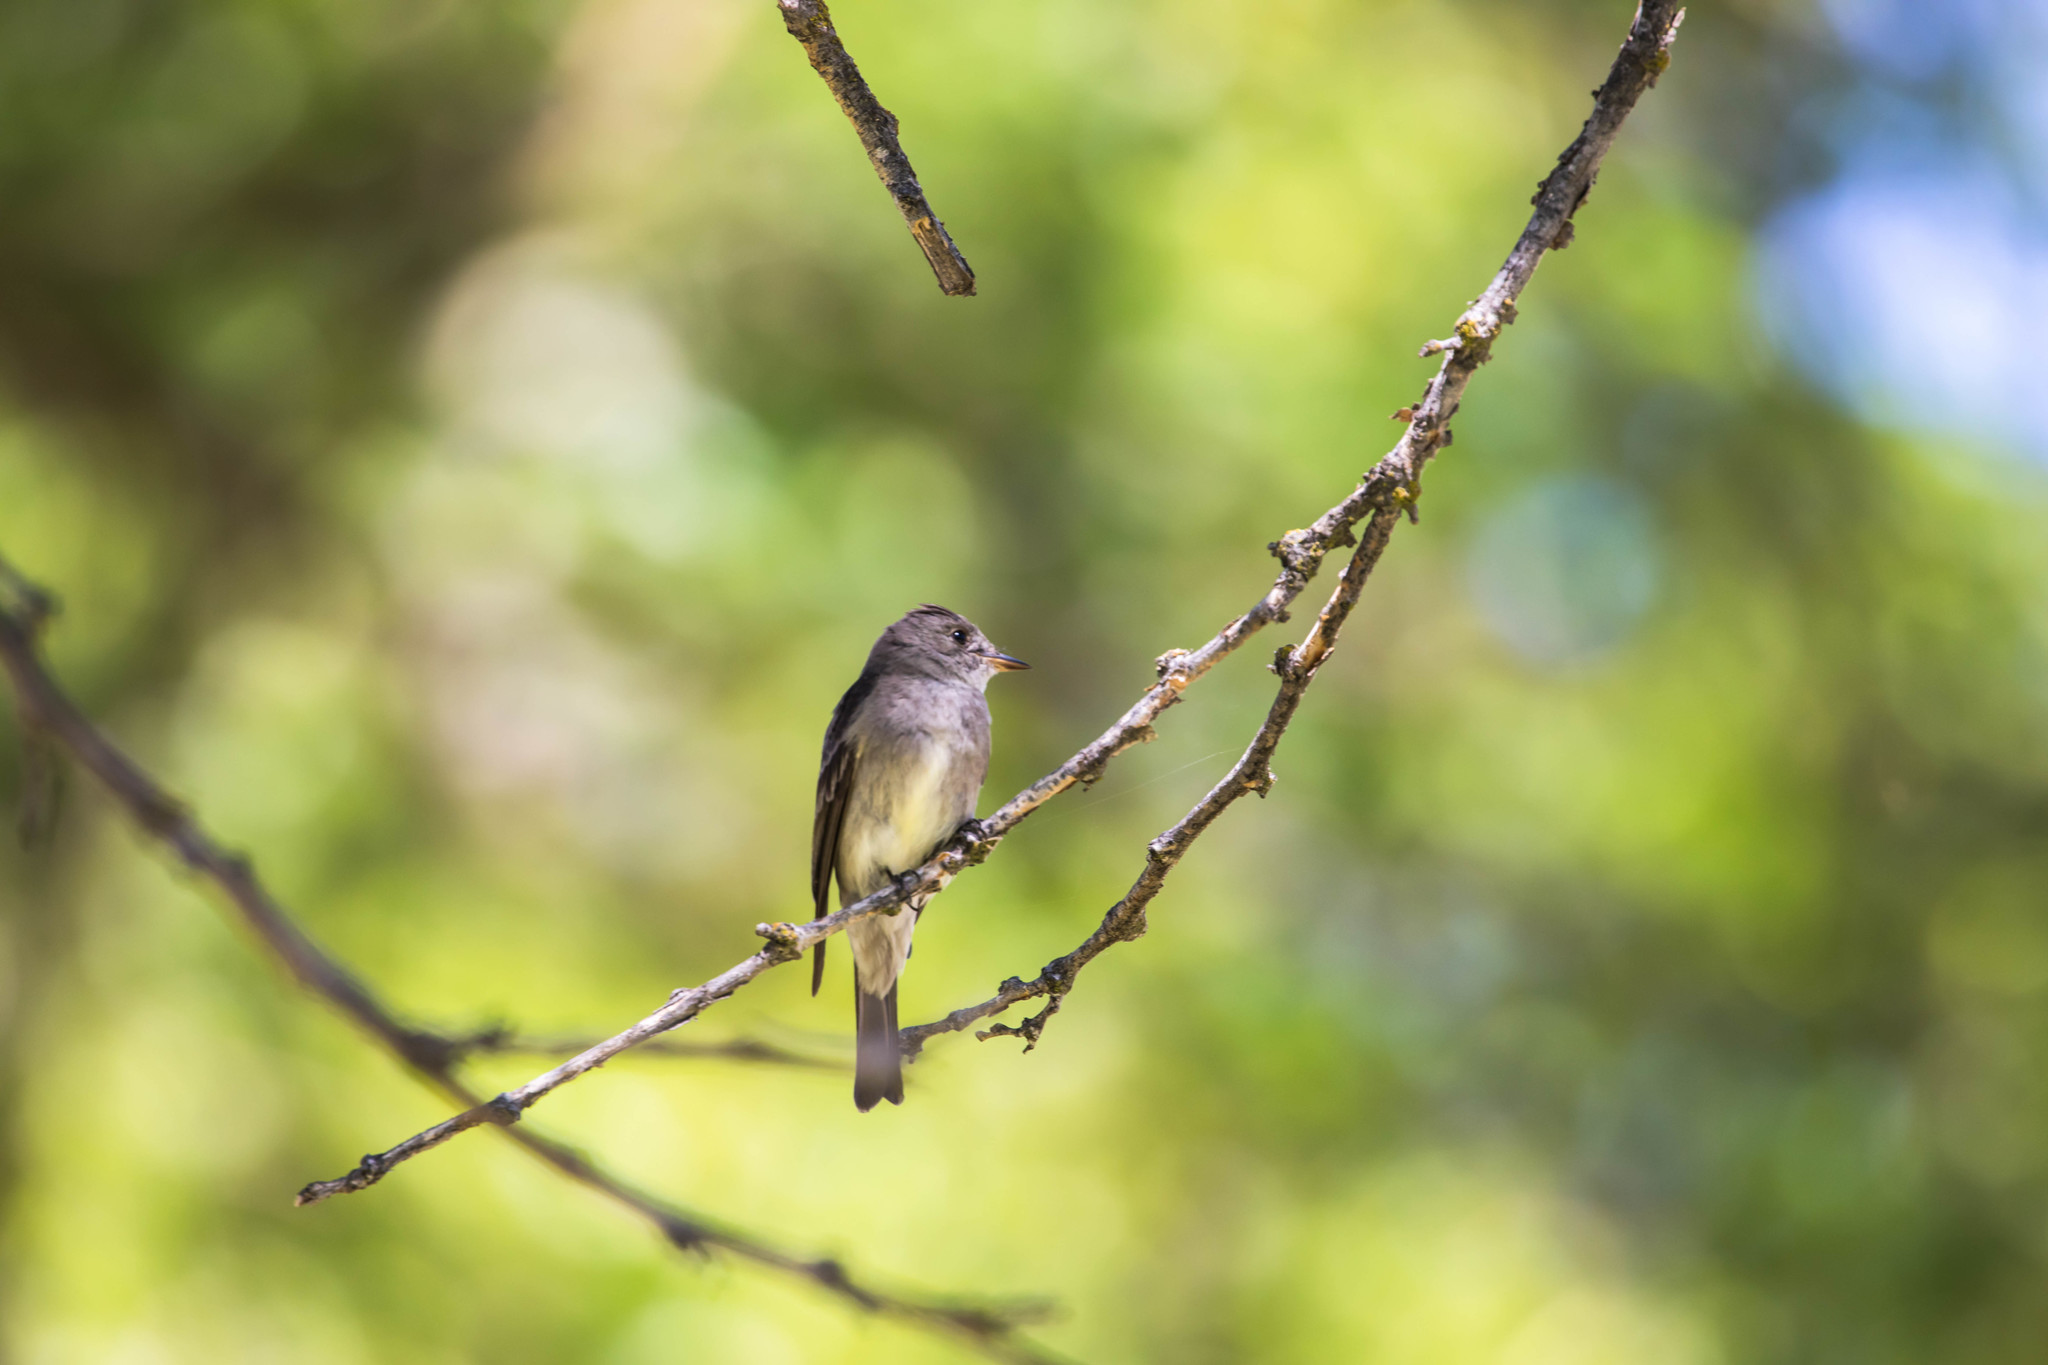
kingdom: Animalia
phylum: Chordata
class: Aves
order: Passeriformes
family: Tyrannidae
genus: Contopus
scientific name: Contopus sordidulus
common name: Western wood-pewee
